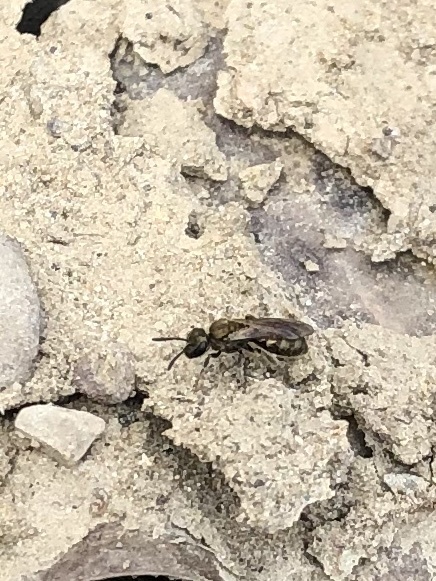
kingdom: Animalia
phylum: Arthropoda
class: Insecta
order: Hymenoptera
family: Halictidae
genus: Dialictus
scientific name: Dialictus
